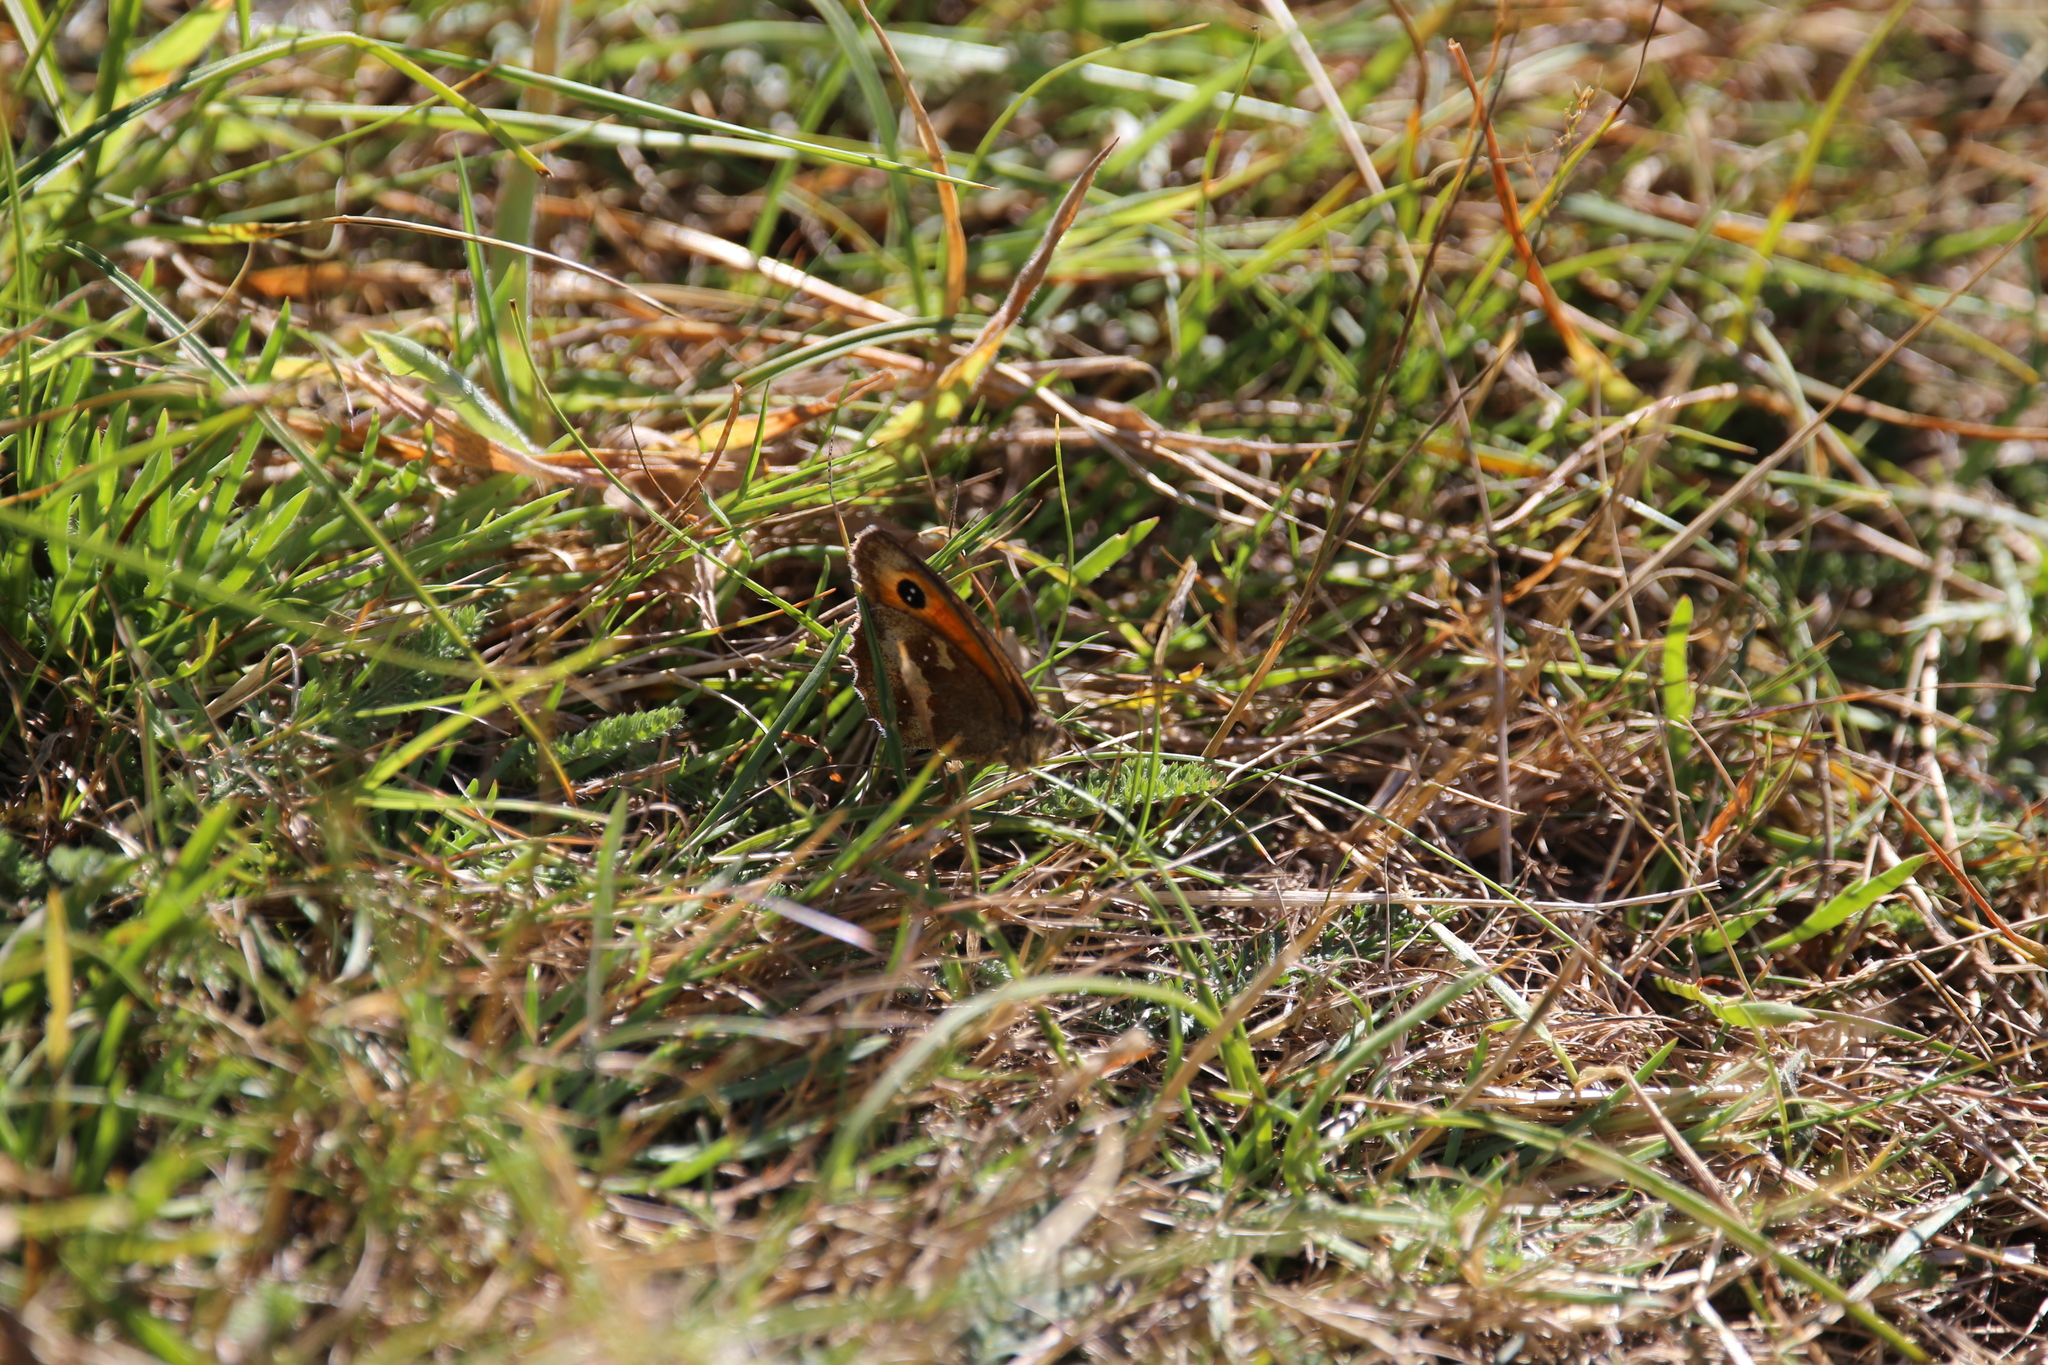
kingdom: Animalia
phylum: Arthropoda
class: Insecta
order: Lepidoptera
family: Nymphalidae
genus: Pyronia
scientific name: Pyronia tithonus
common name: Gatekeeper
